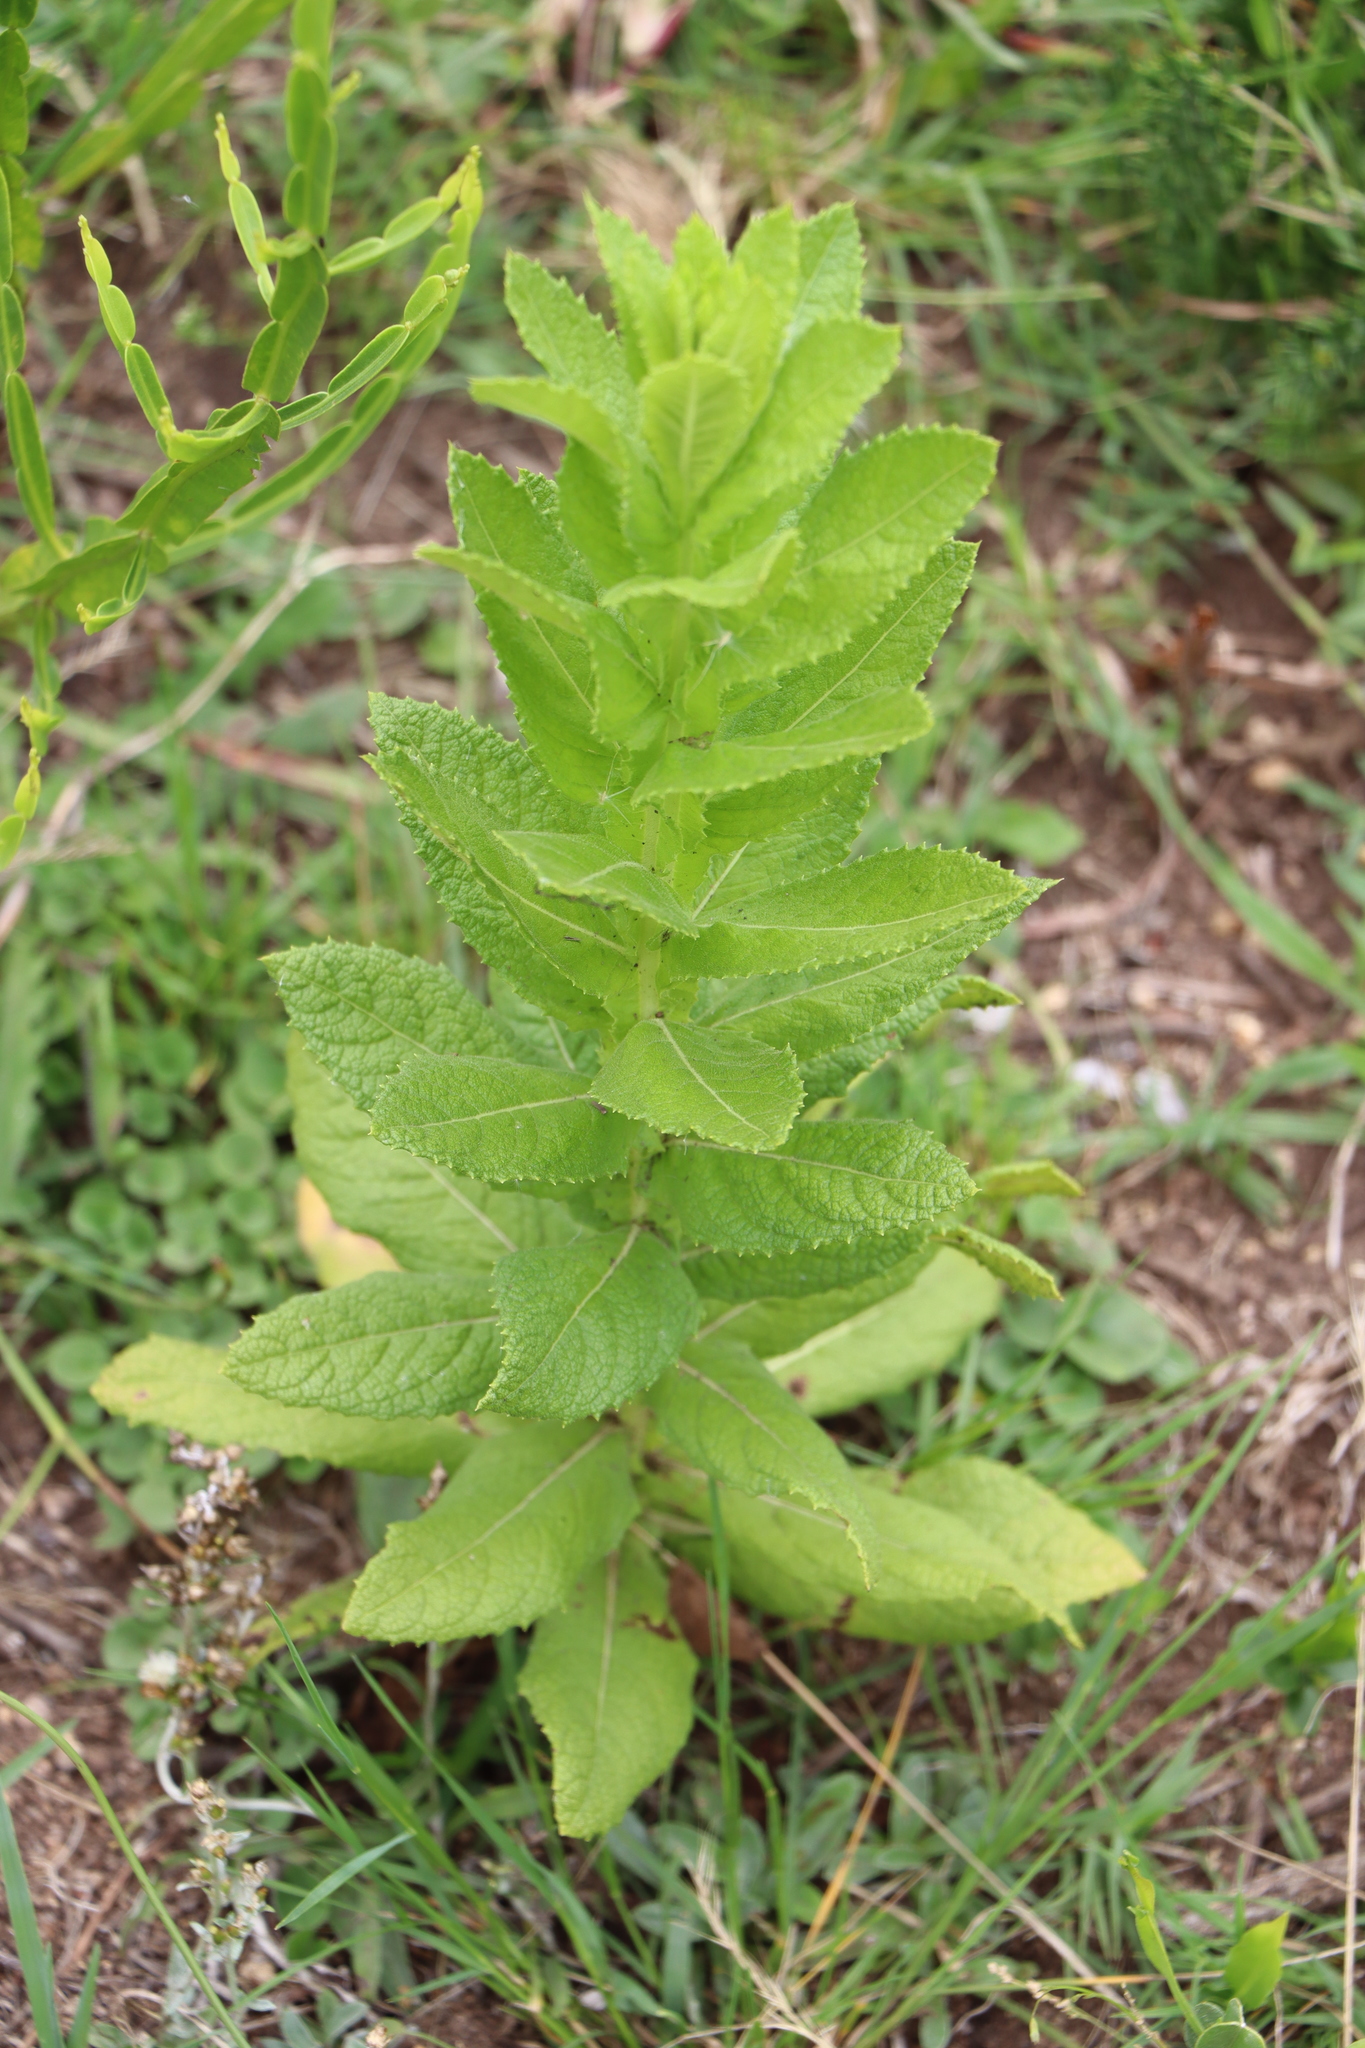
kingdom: Plantae
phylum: Tracheophyta
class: Magnoliopsida
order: Asterales
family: Asteraceae
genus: Pterocaulon
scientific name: Pterocaulon polystachyum
